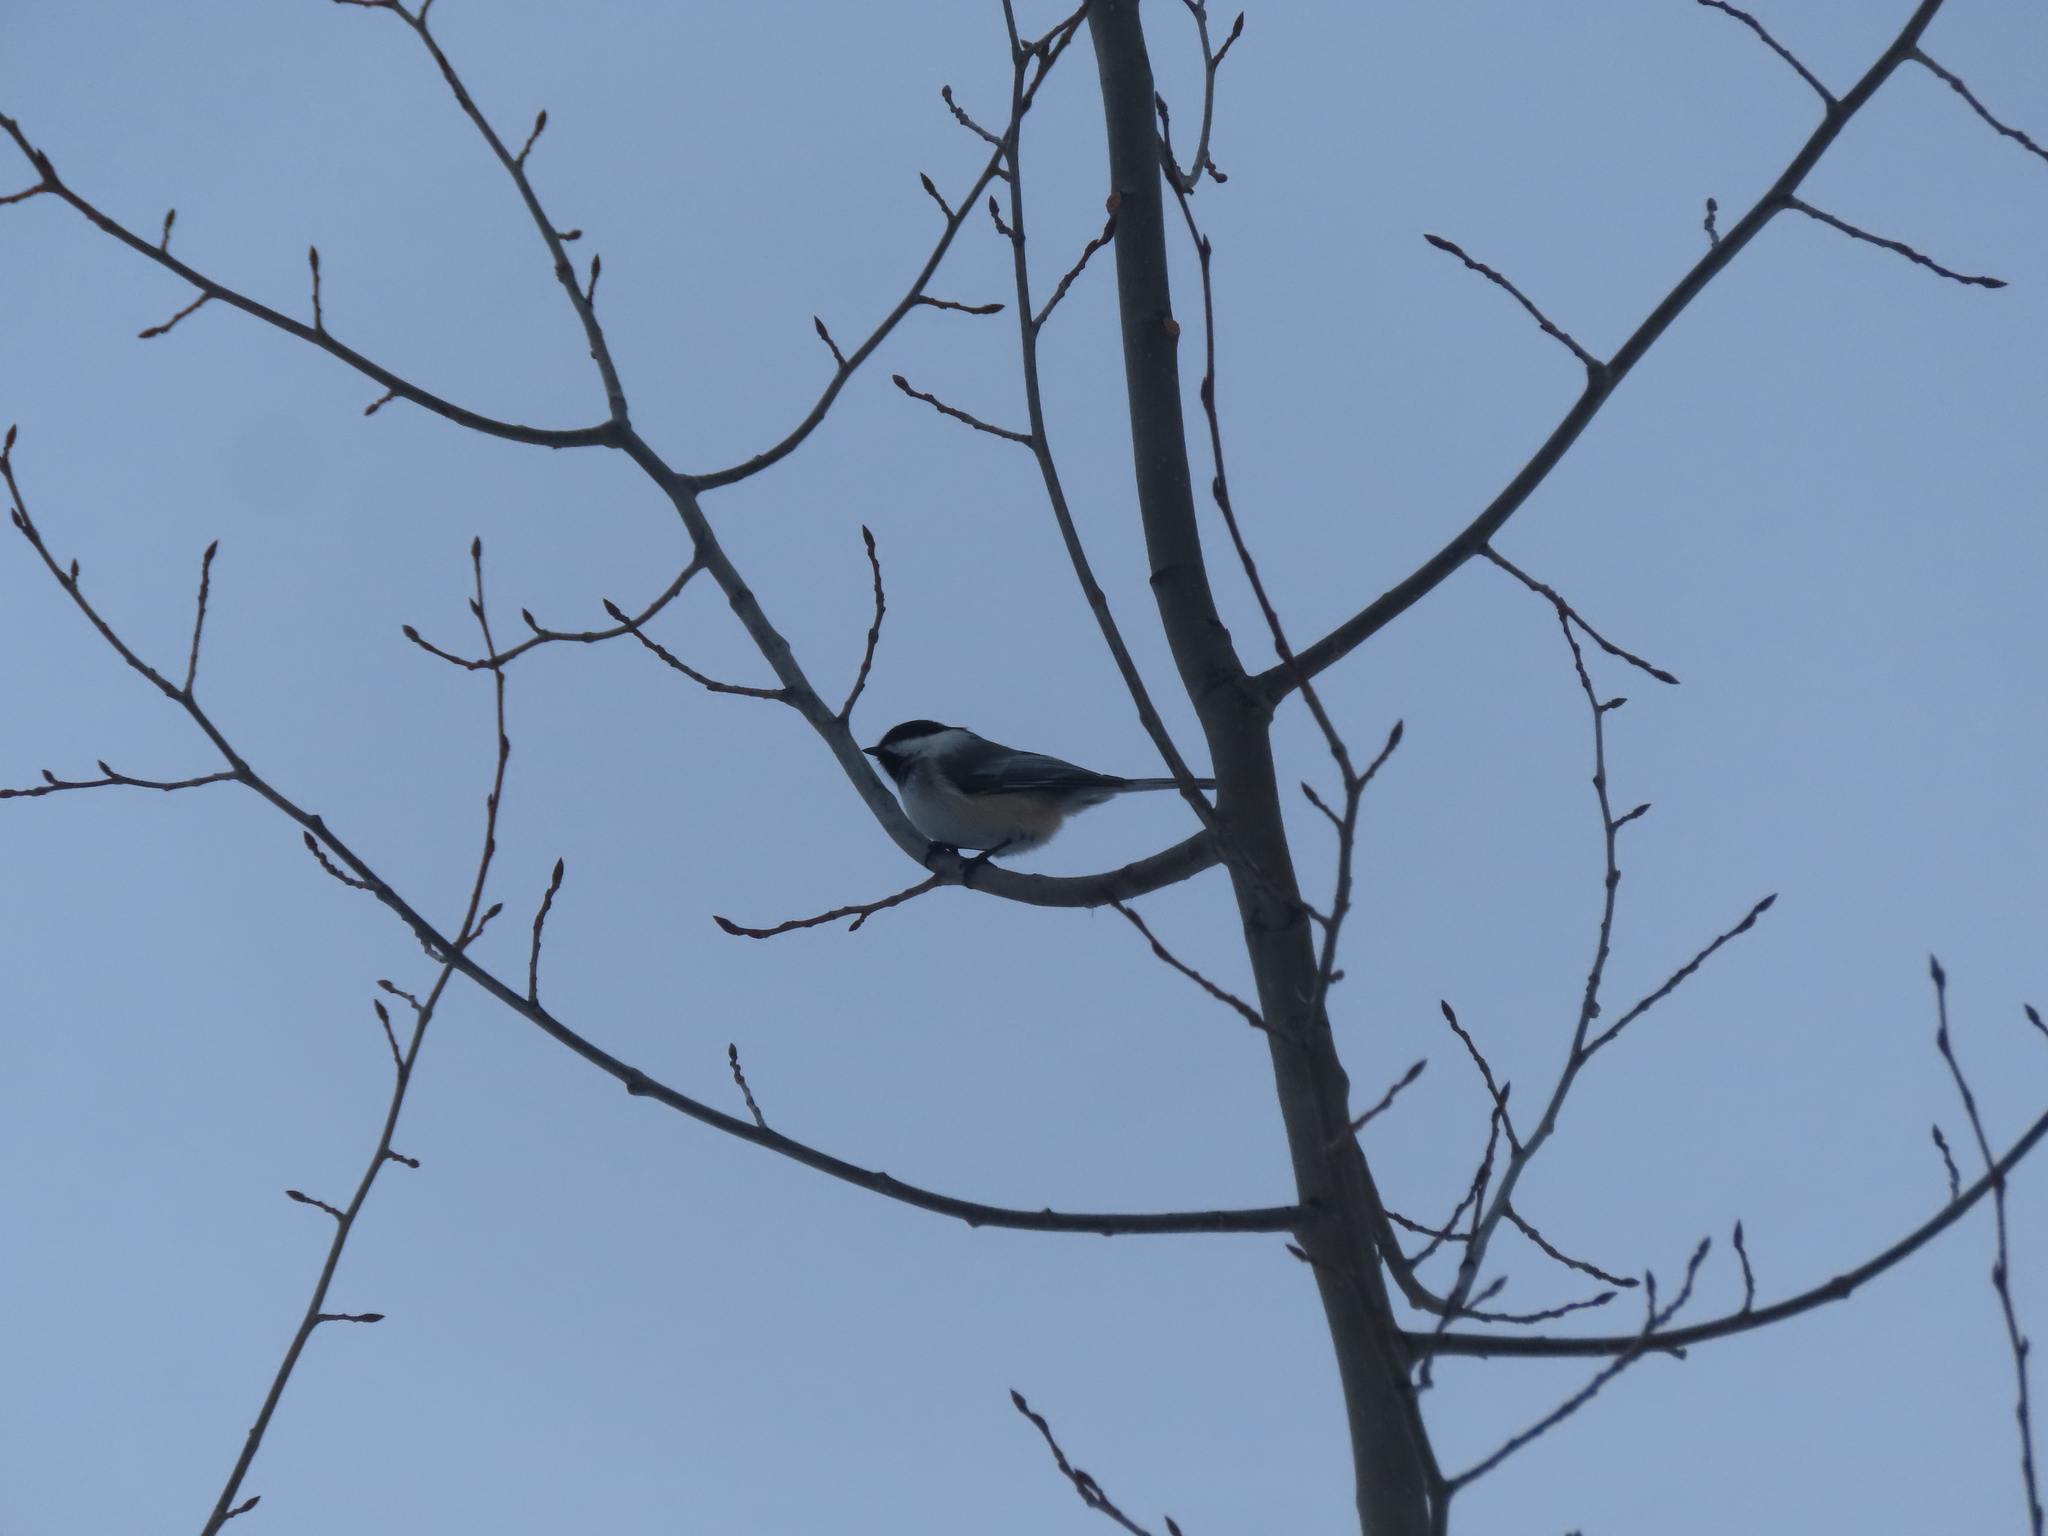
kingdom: Animalia
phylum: Chordata
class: Aves
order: Passeriformes
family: Paridae
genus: Poecile
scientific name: Poecile atricapillus
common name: Black-capped chickadee
